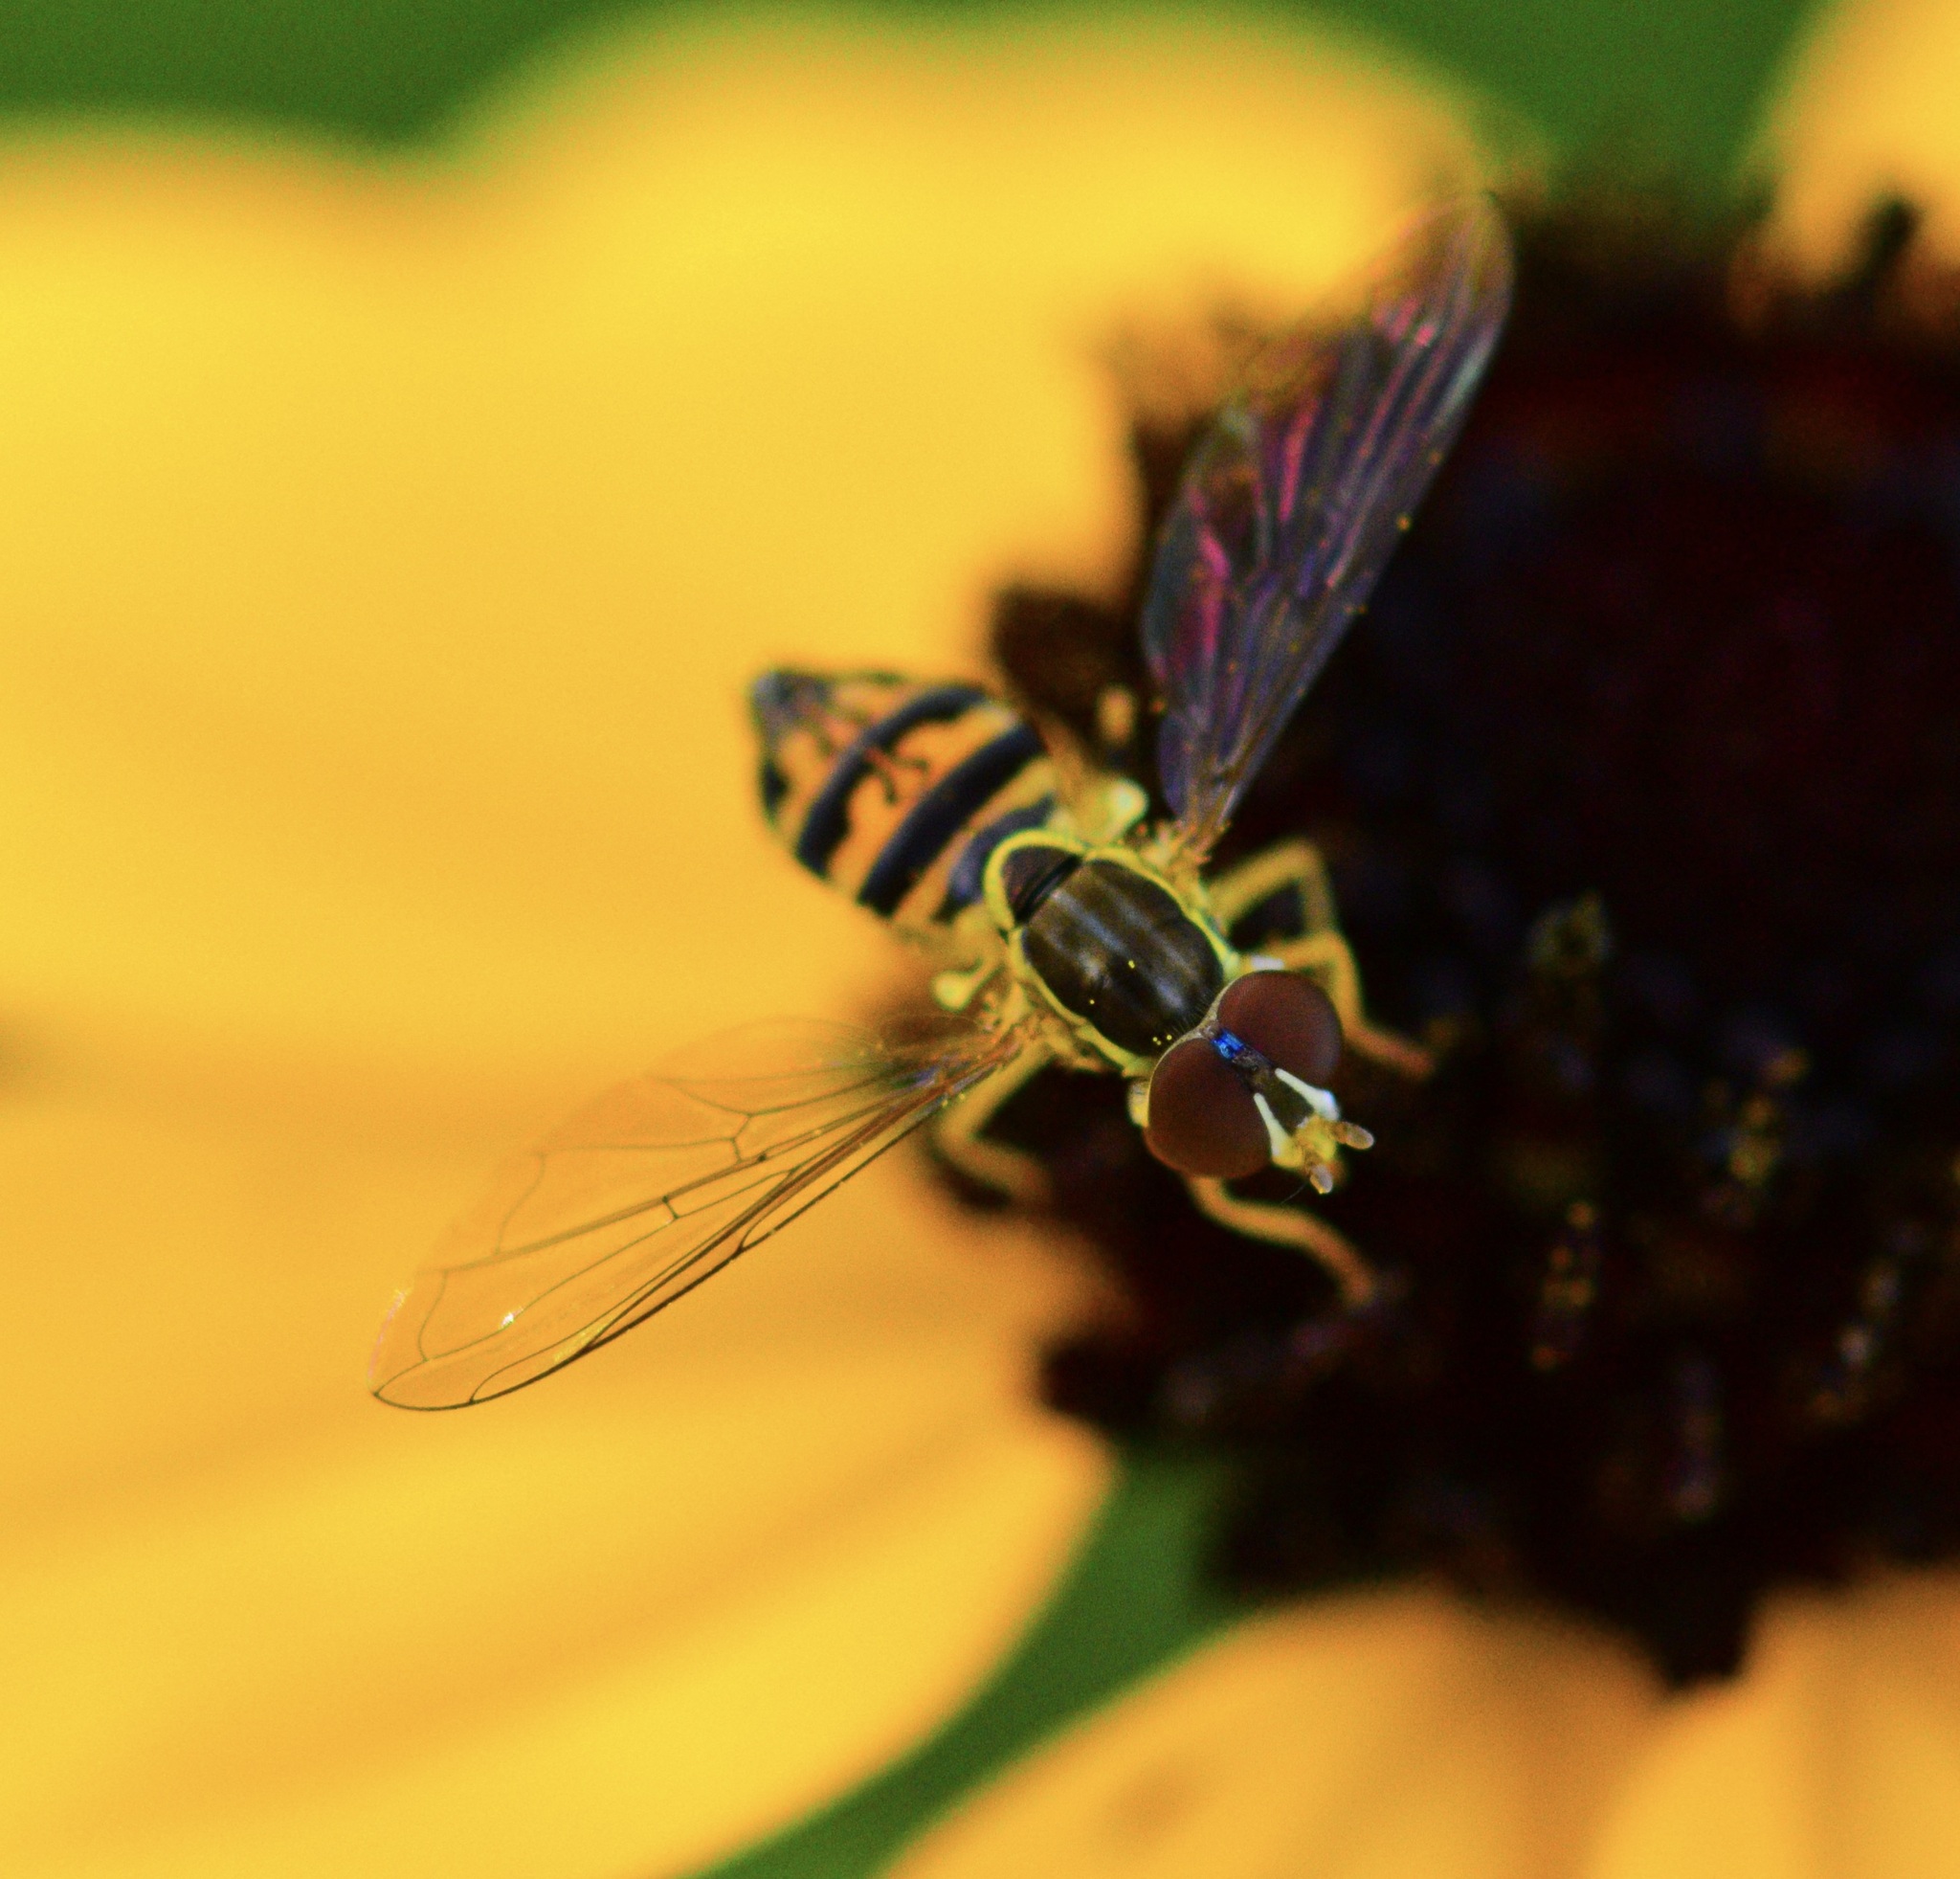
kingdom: Animalia
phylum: Arthropoda
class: Insecta
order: Diptera
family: Syrphidae
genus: Toxomerus
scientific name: Toxomerus geminatus
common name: Eastern calligrapher
